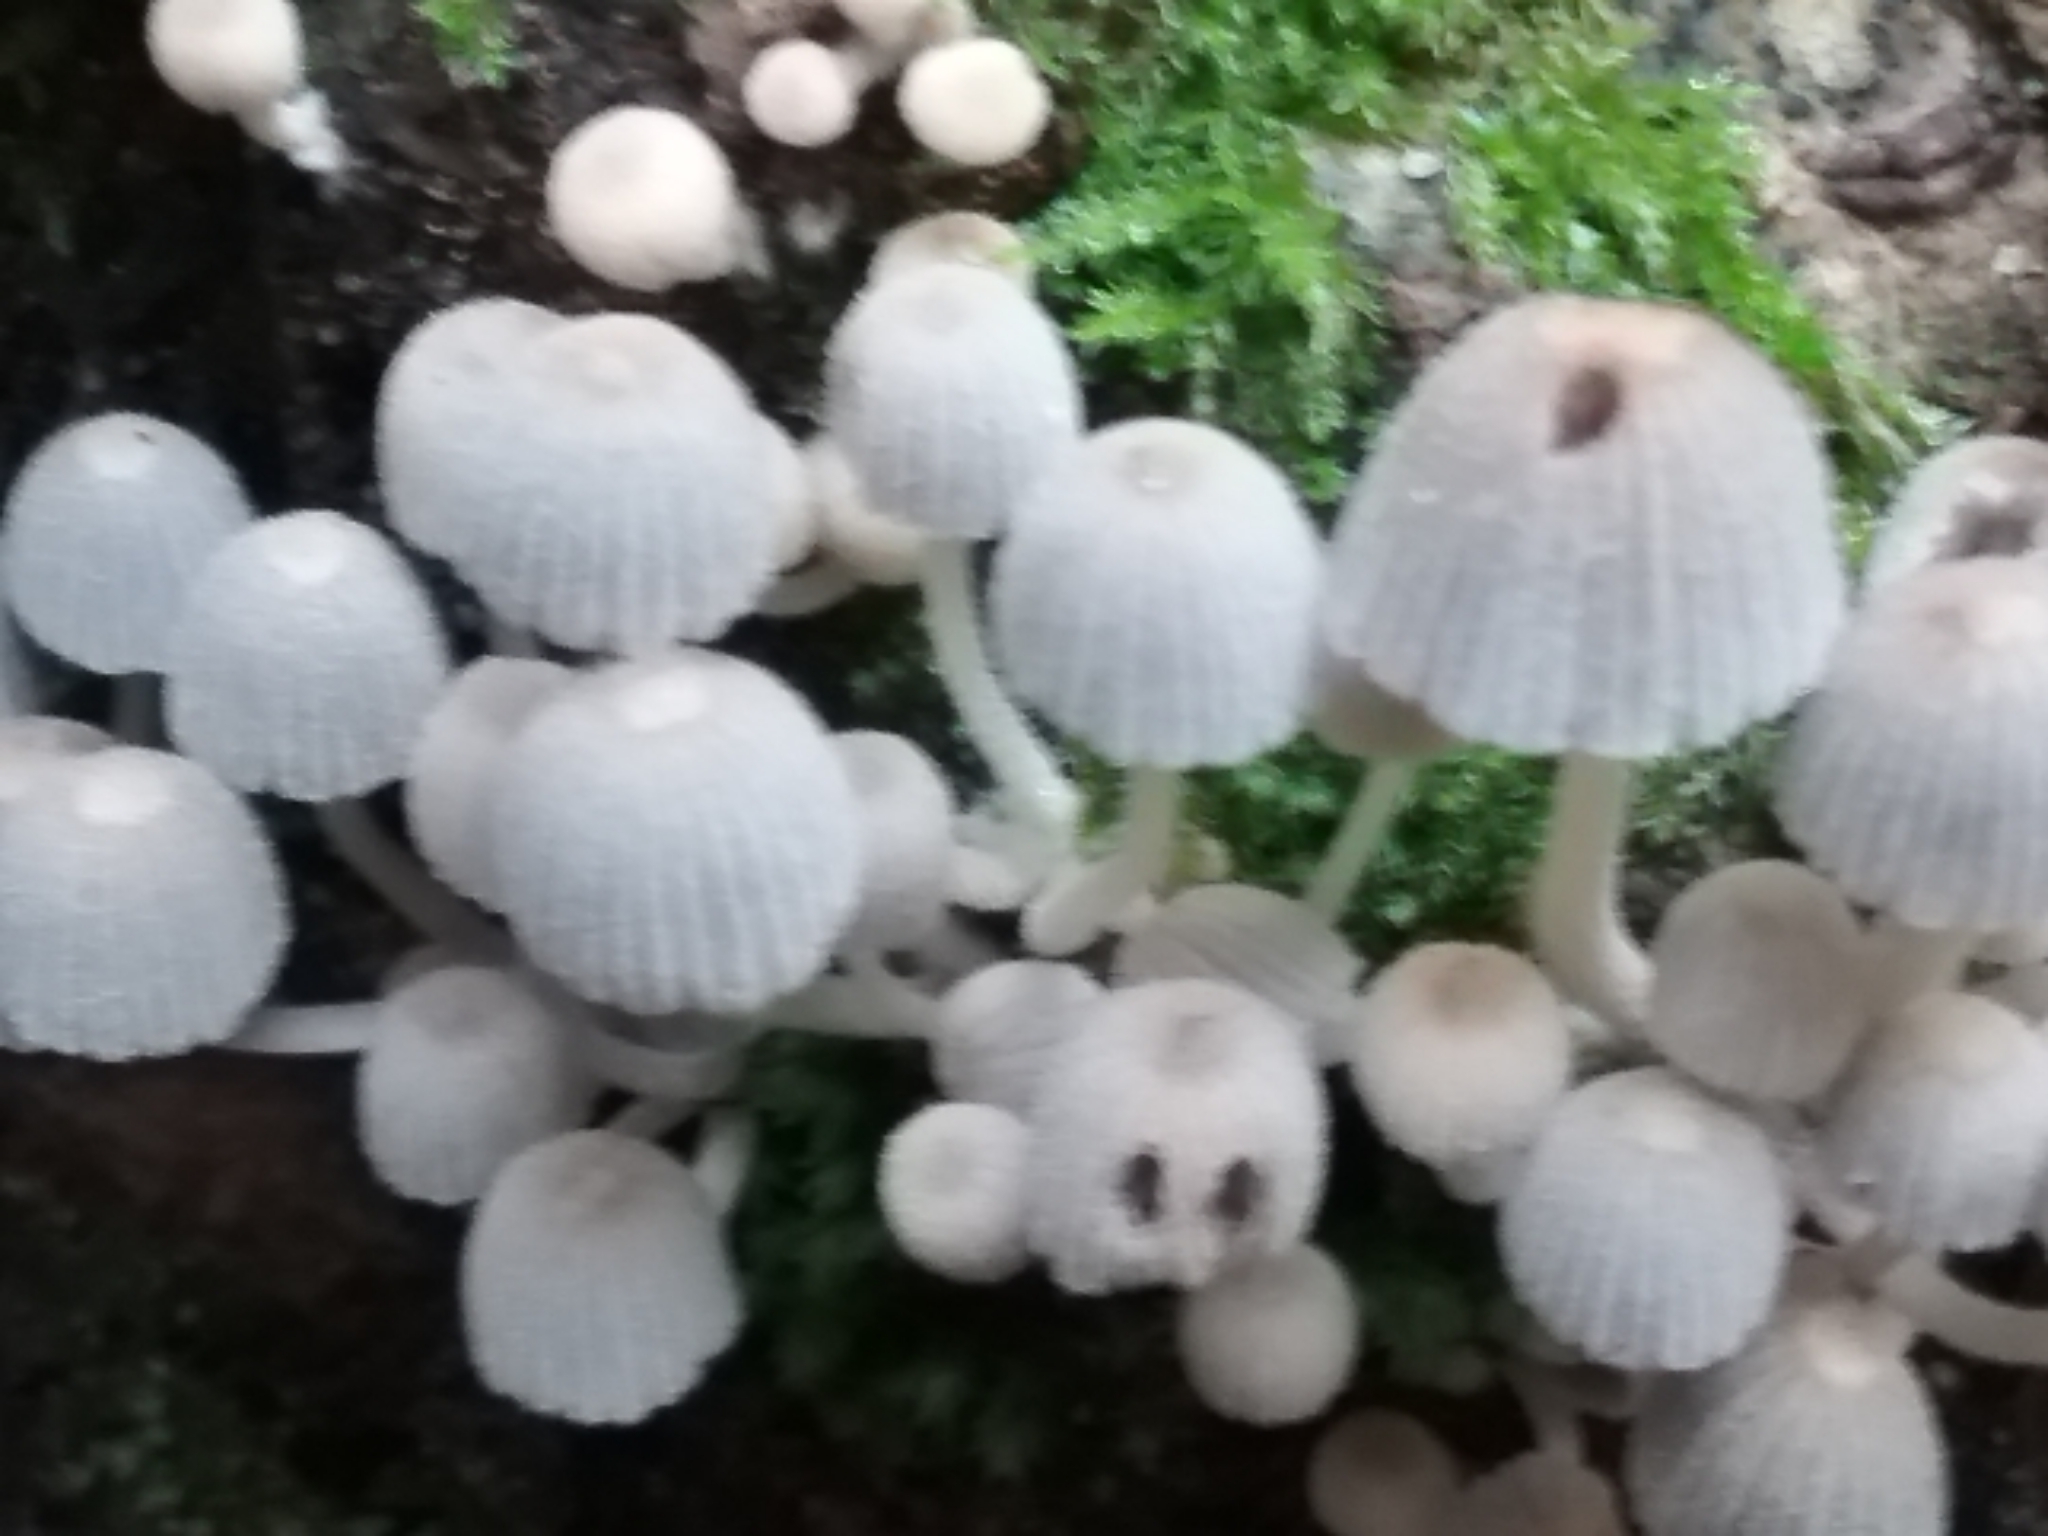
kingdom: Fungi
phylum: Basidiomycota
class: Agaricomycetes
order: Agaricales
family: Psathyrellaceae
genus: Coprinellus
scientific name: Coprinellus disseminatus
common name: Fairies' bonnets
